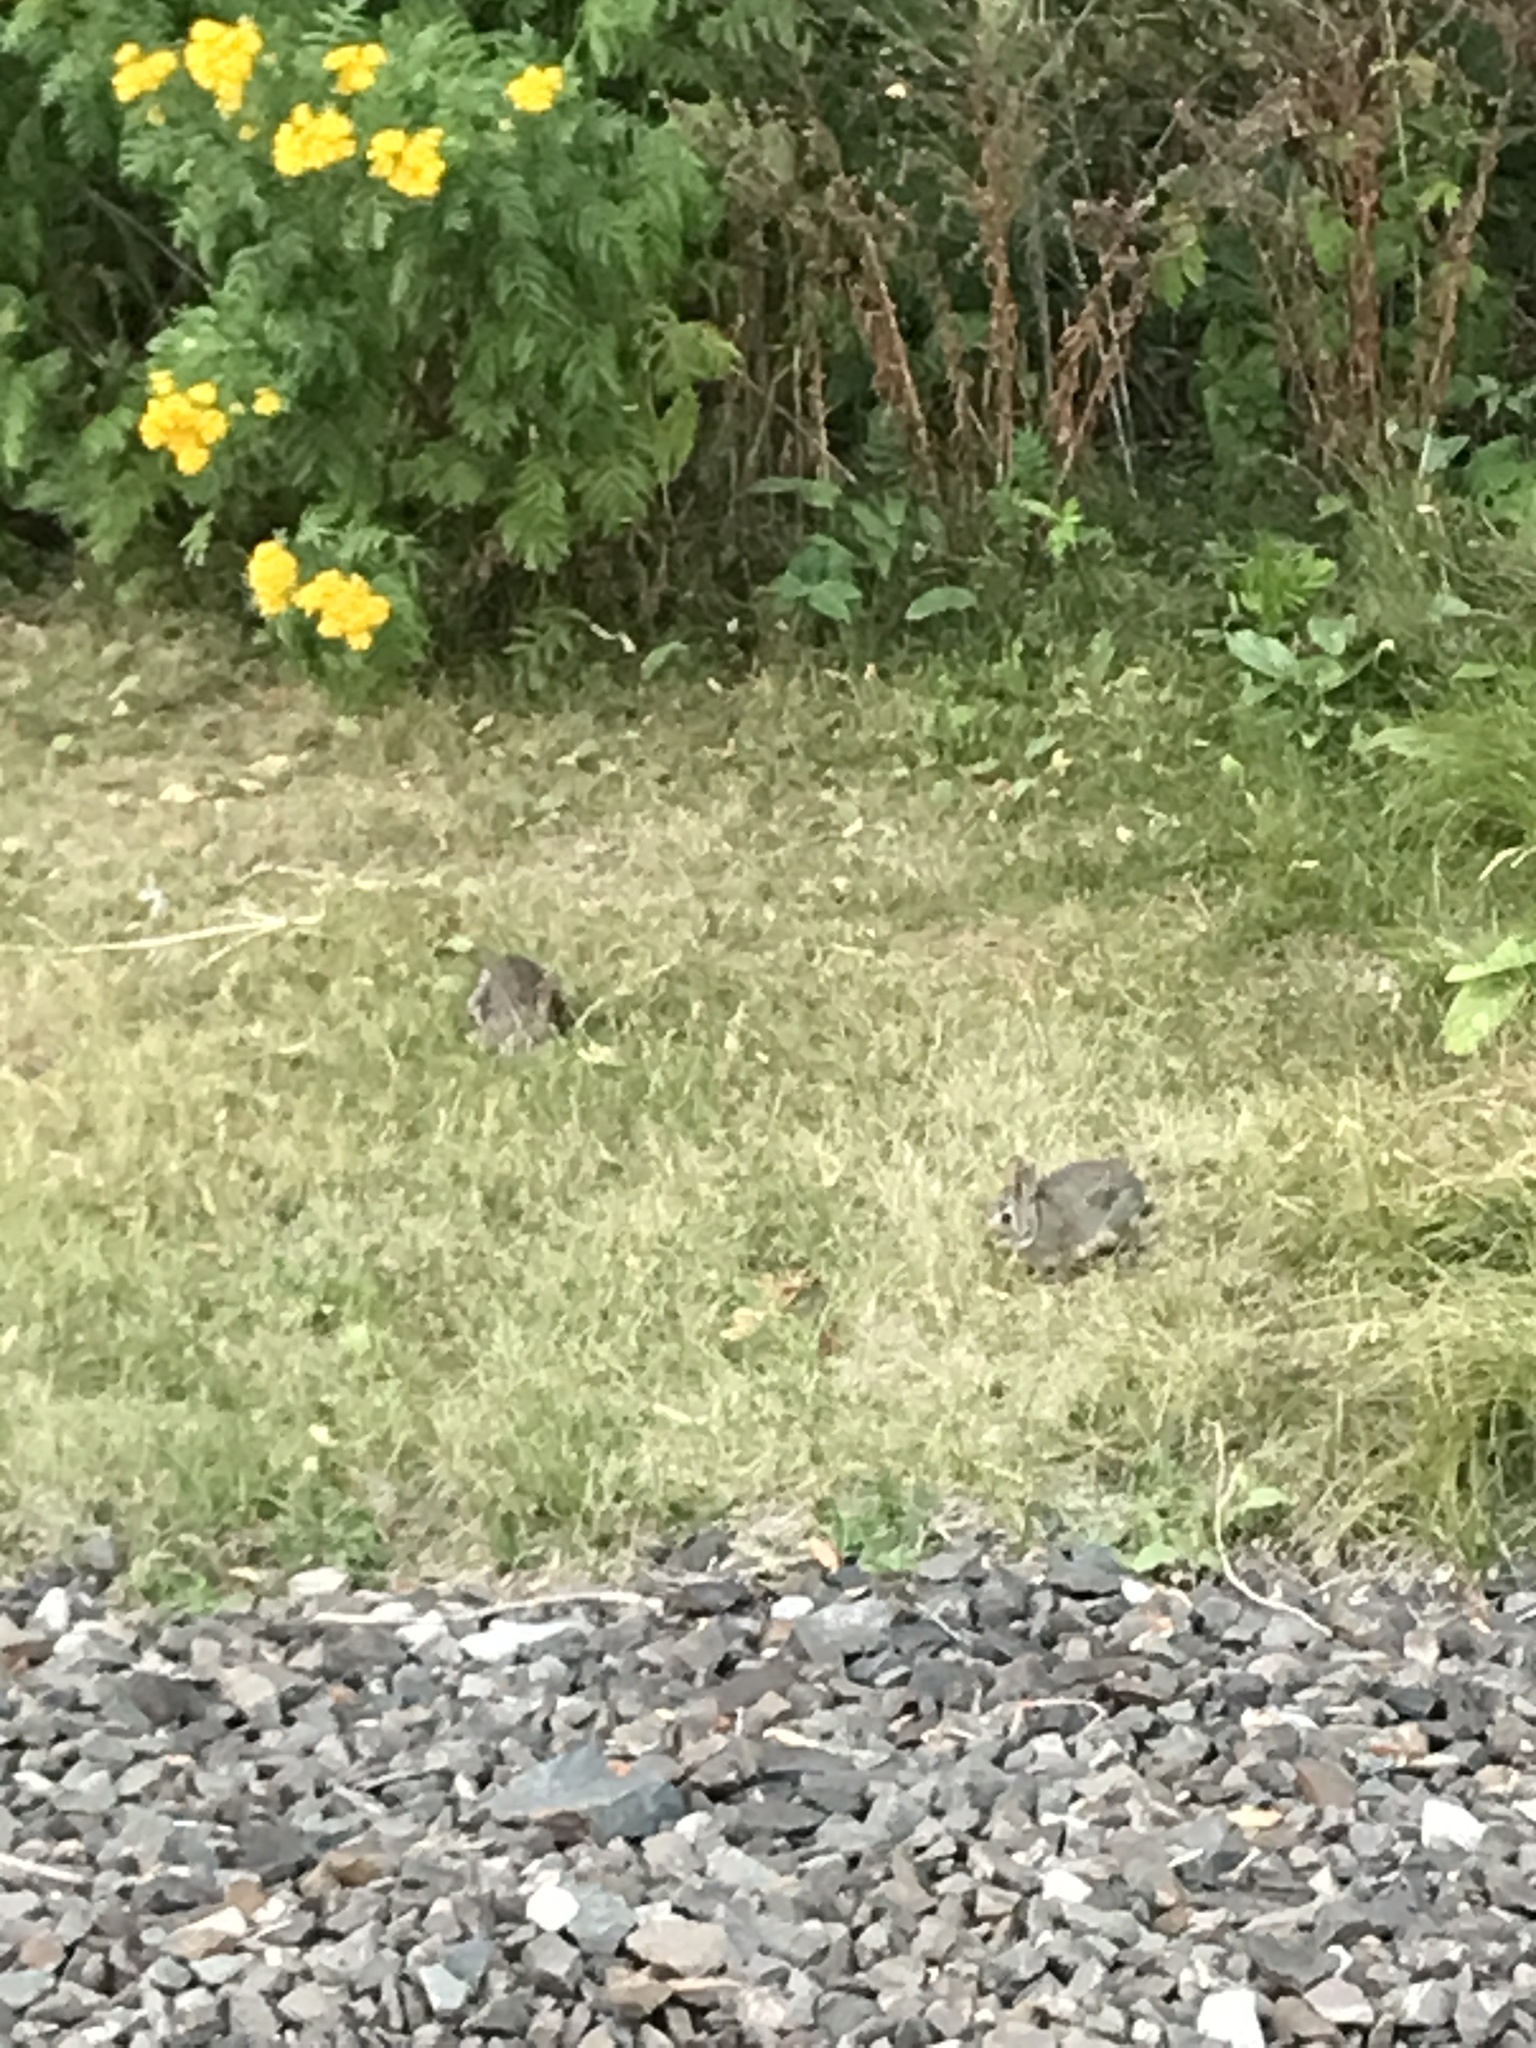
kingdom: Animalia
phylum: Chordata
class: Mammalia
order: Lagomorpha
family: Leporidae
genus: Sylvilagus
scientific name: Sylvilagus floridanus
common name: Eastern cottontail
